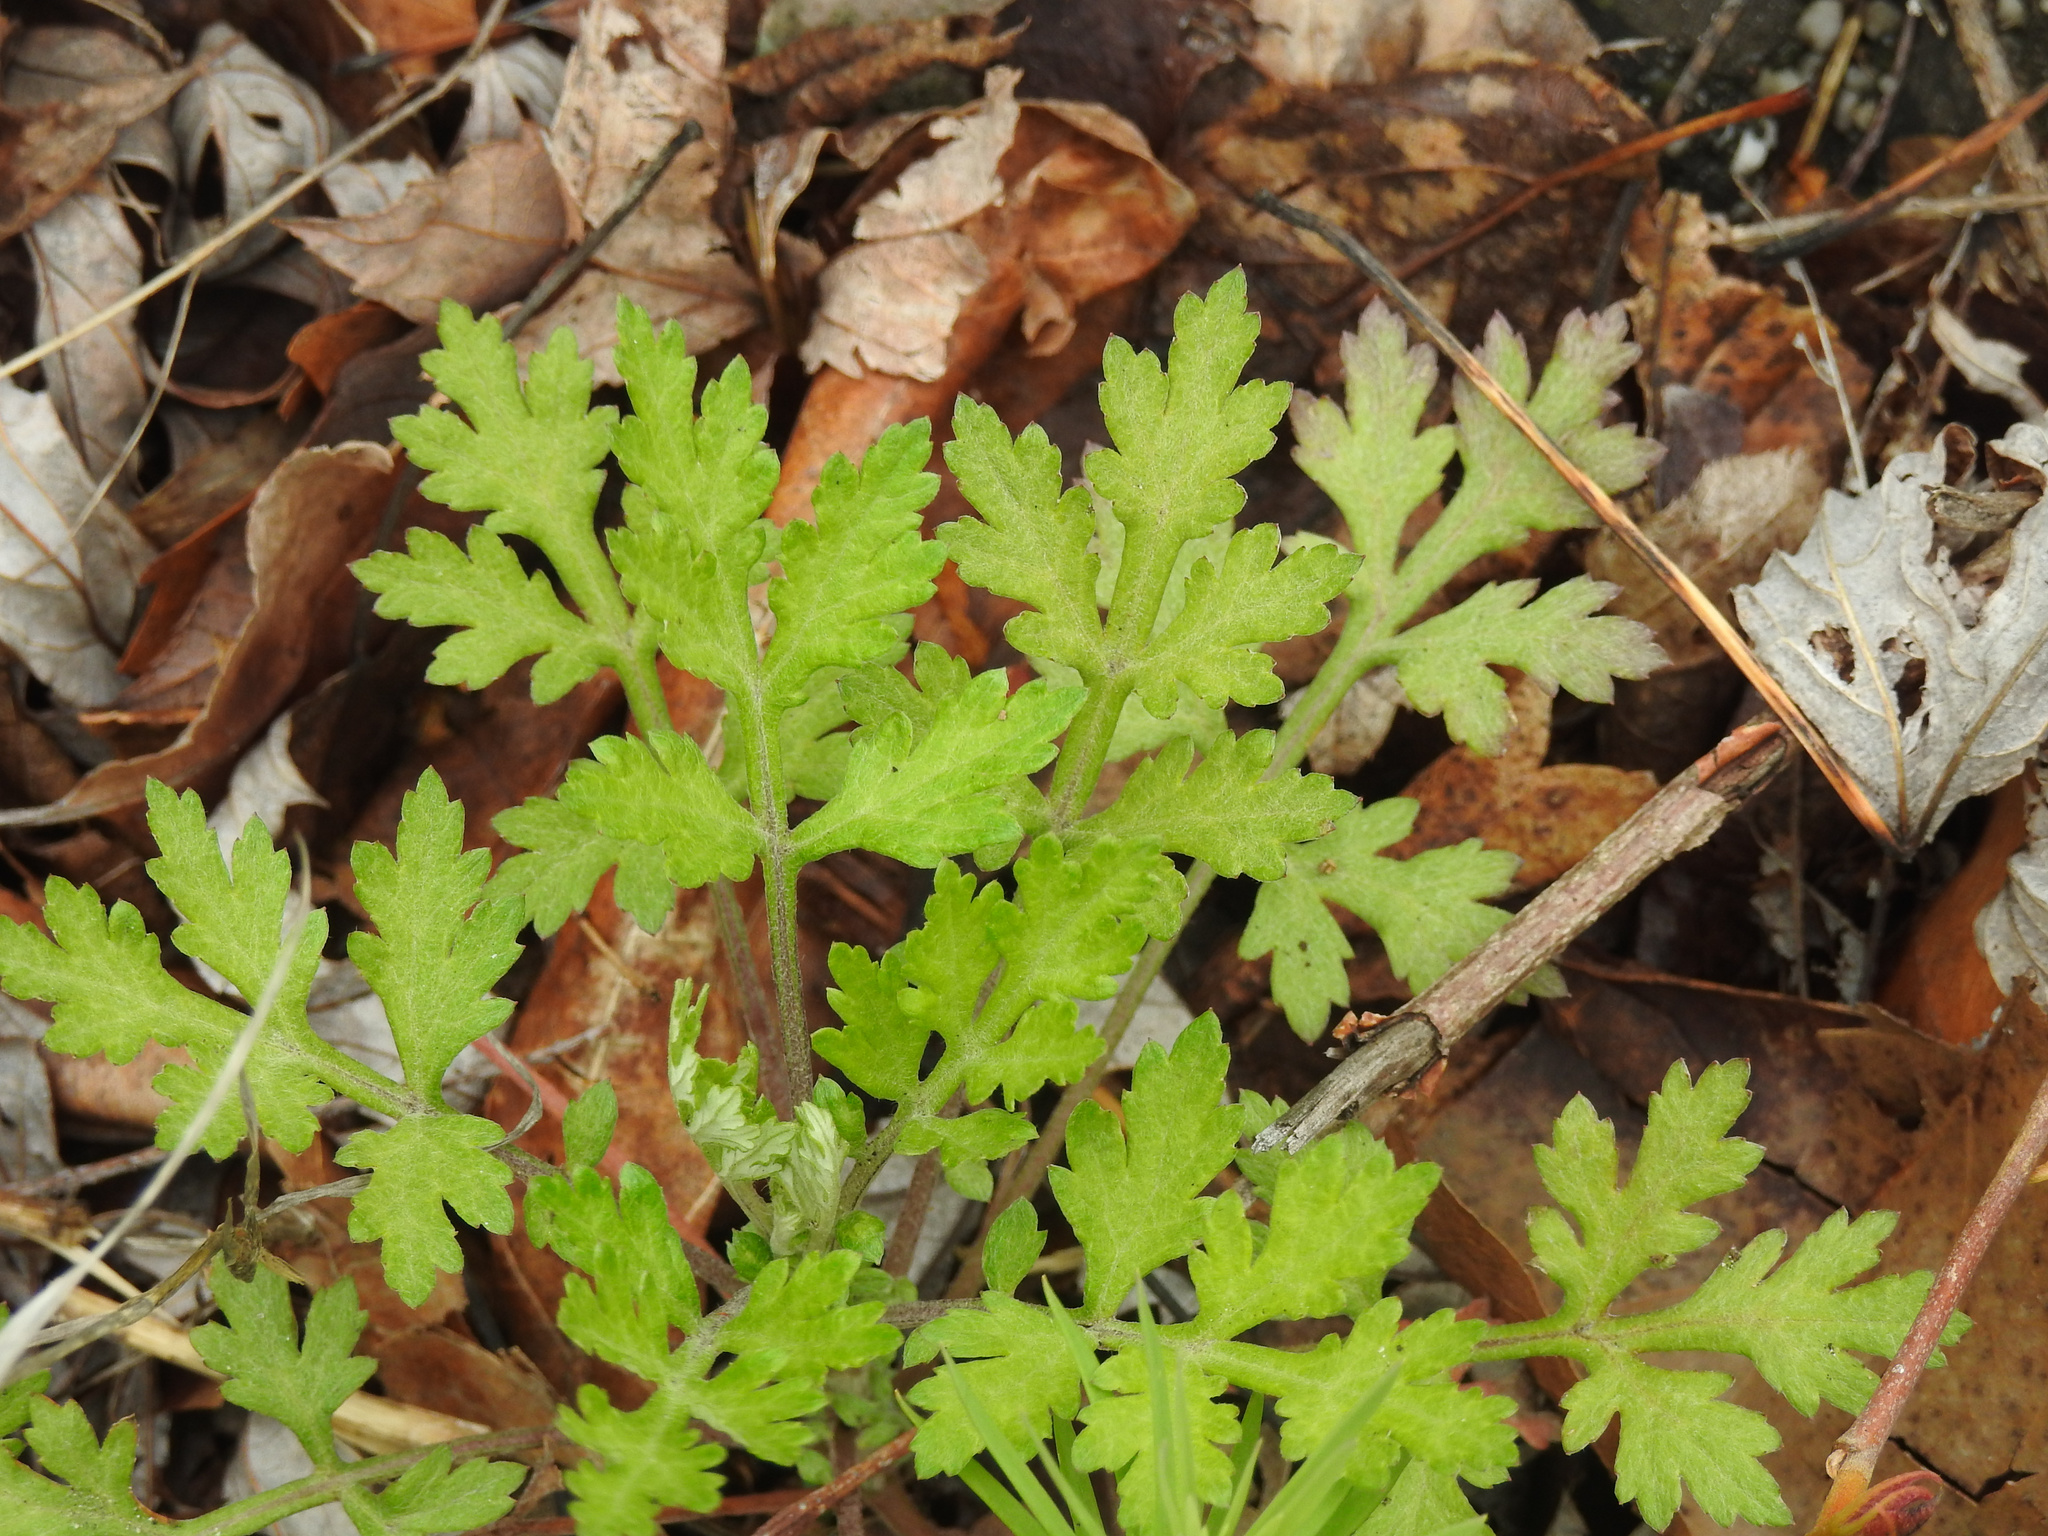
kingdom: Plantae
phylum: Tracheophyta
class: Magnoliopsida
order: Asterales
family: Asteraceae
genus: Artemisia
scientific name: Artemisia vulgaris
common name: Mugwort
